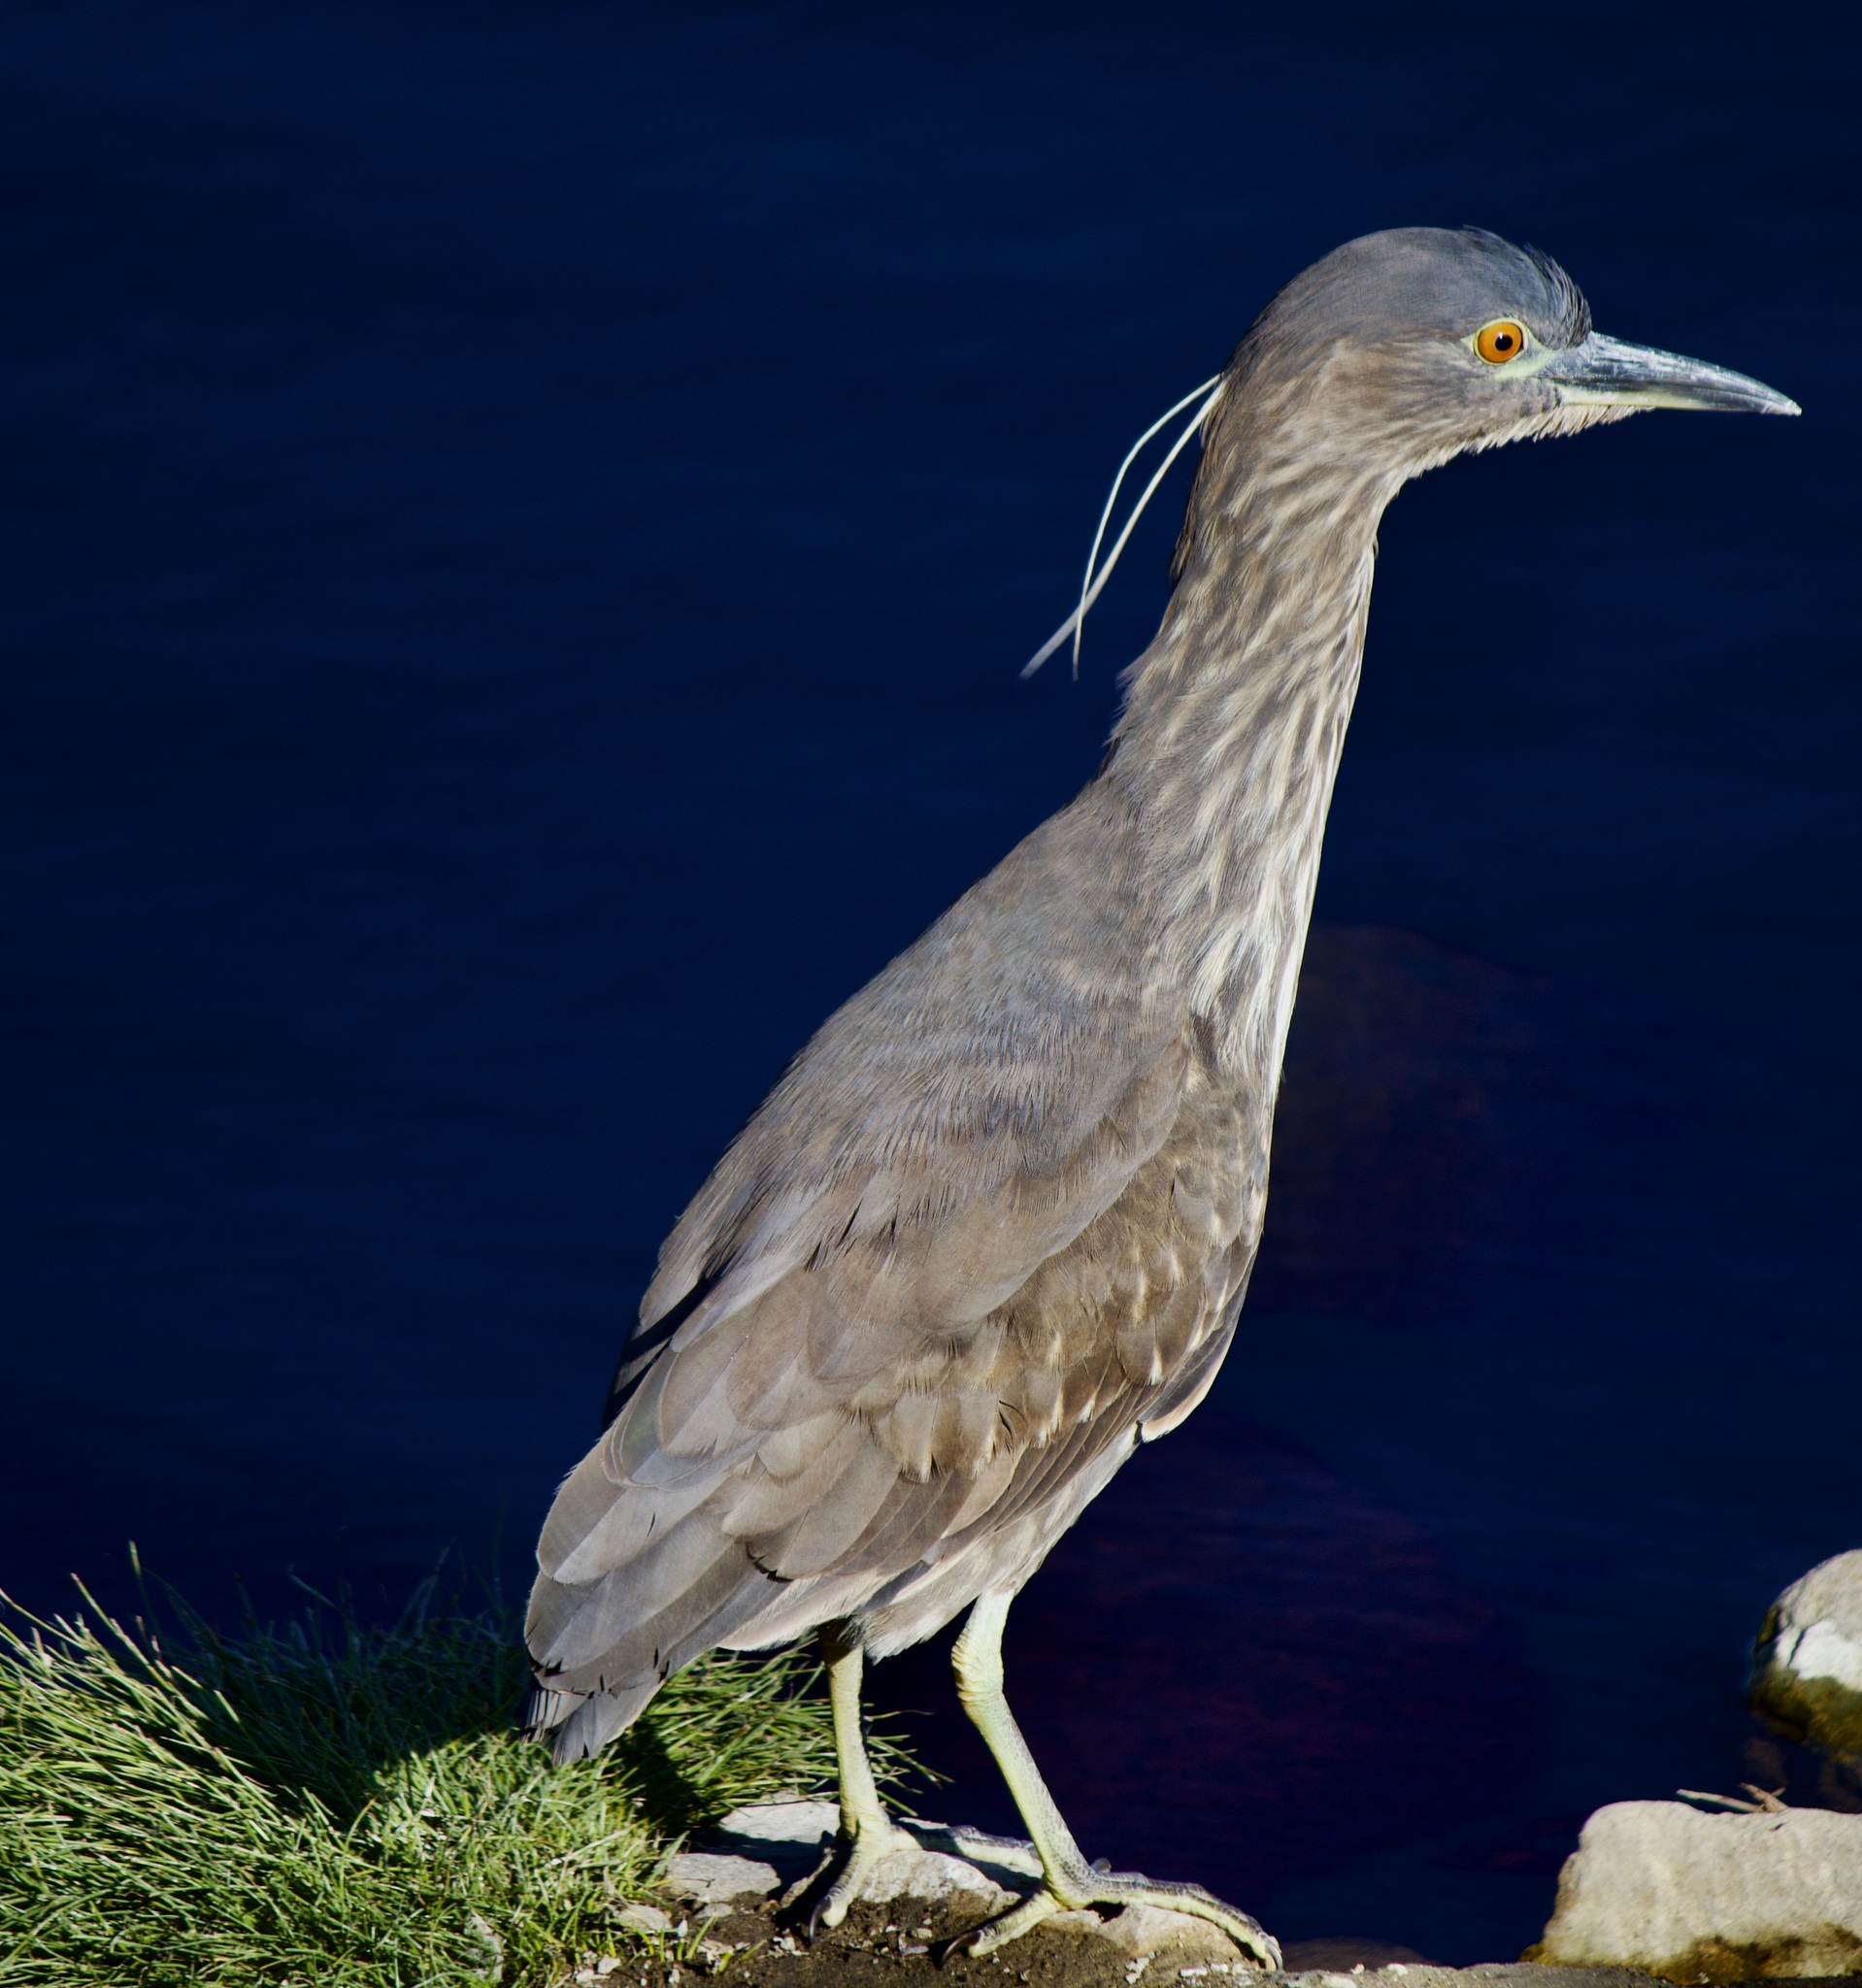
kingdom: Animalia
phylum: Chordata
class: Aves
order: Pelecaniformes
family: Ardeidae
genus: Nycticorax
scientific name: Nycticorax nycticorax
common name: Black-crowned night heron
